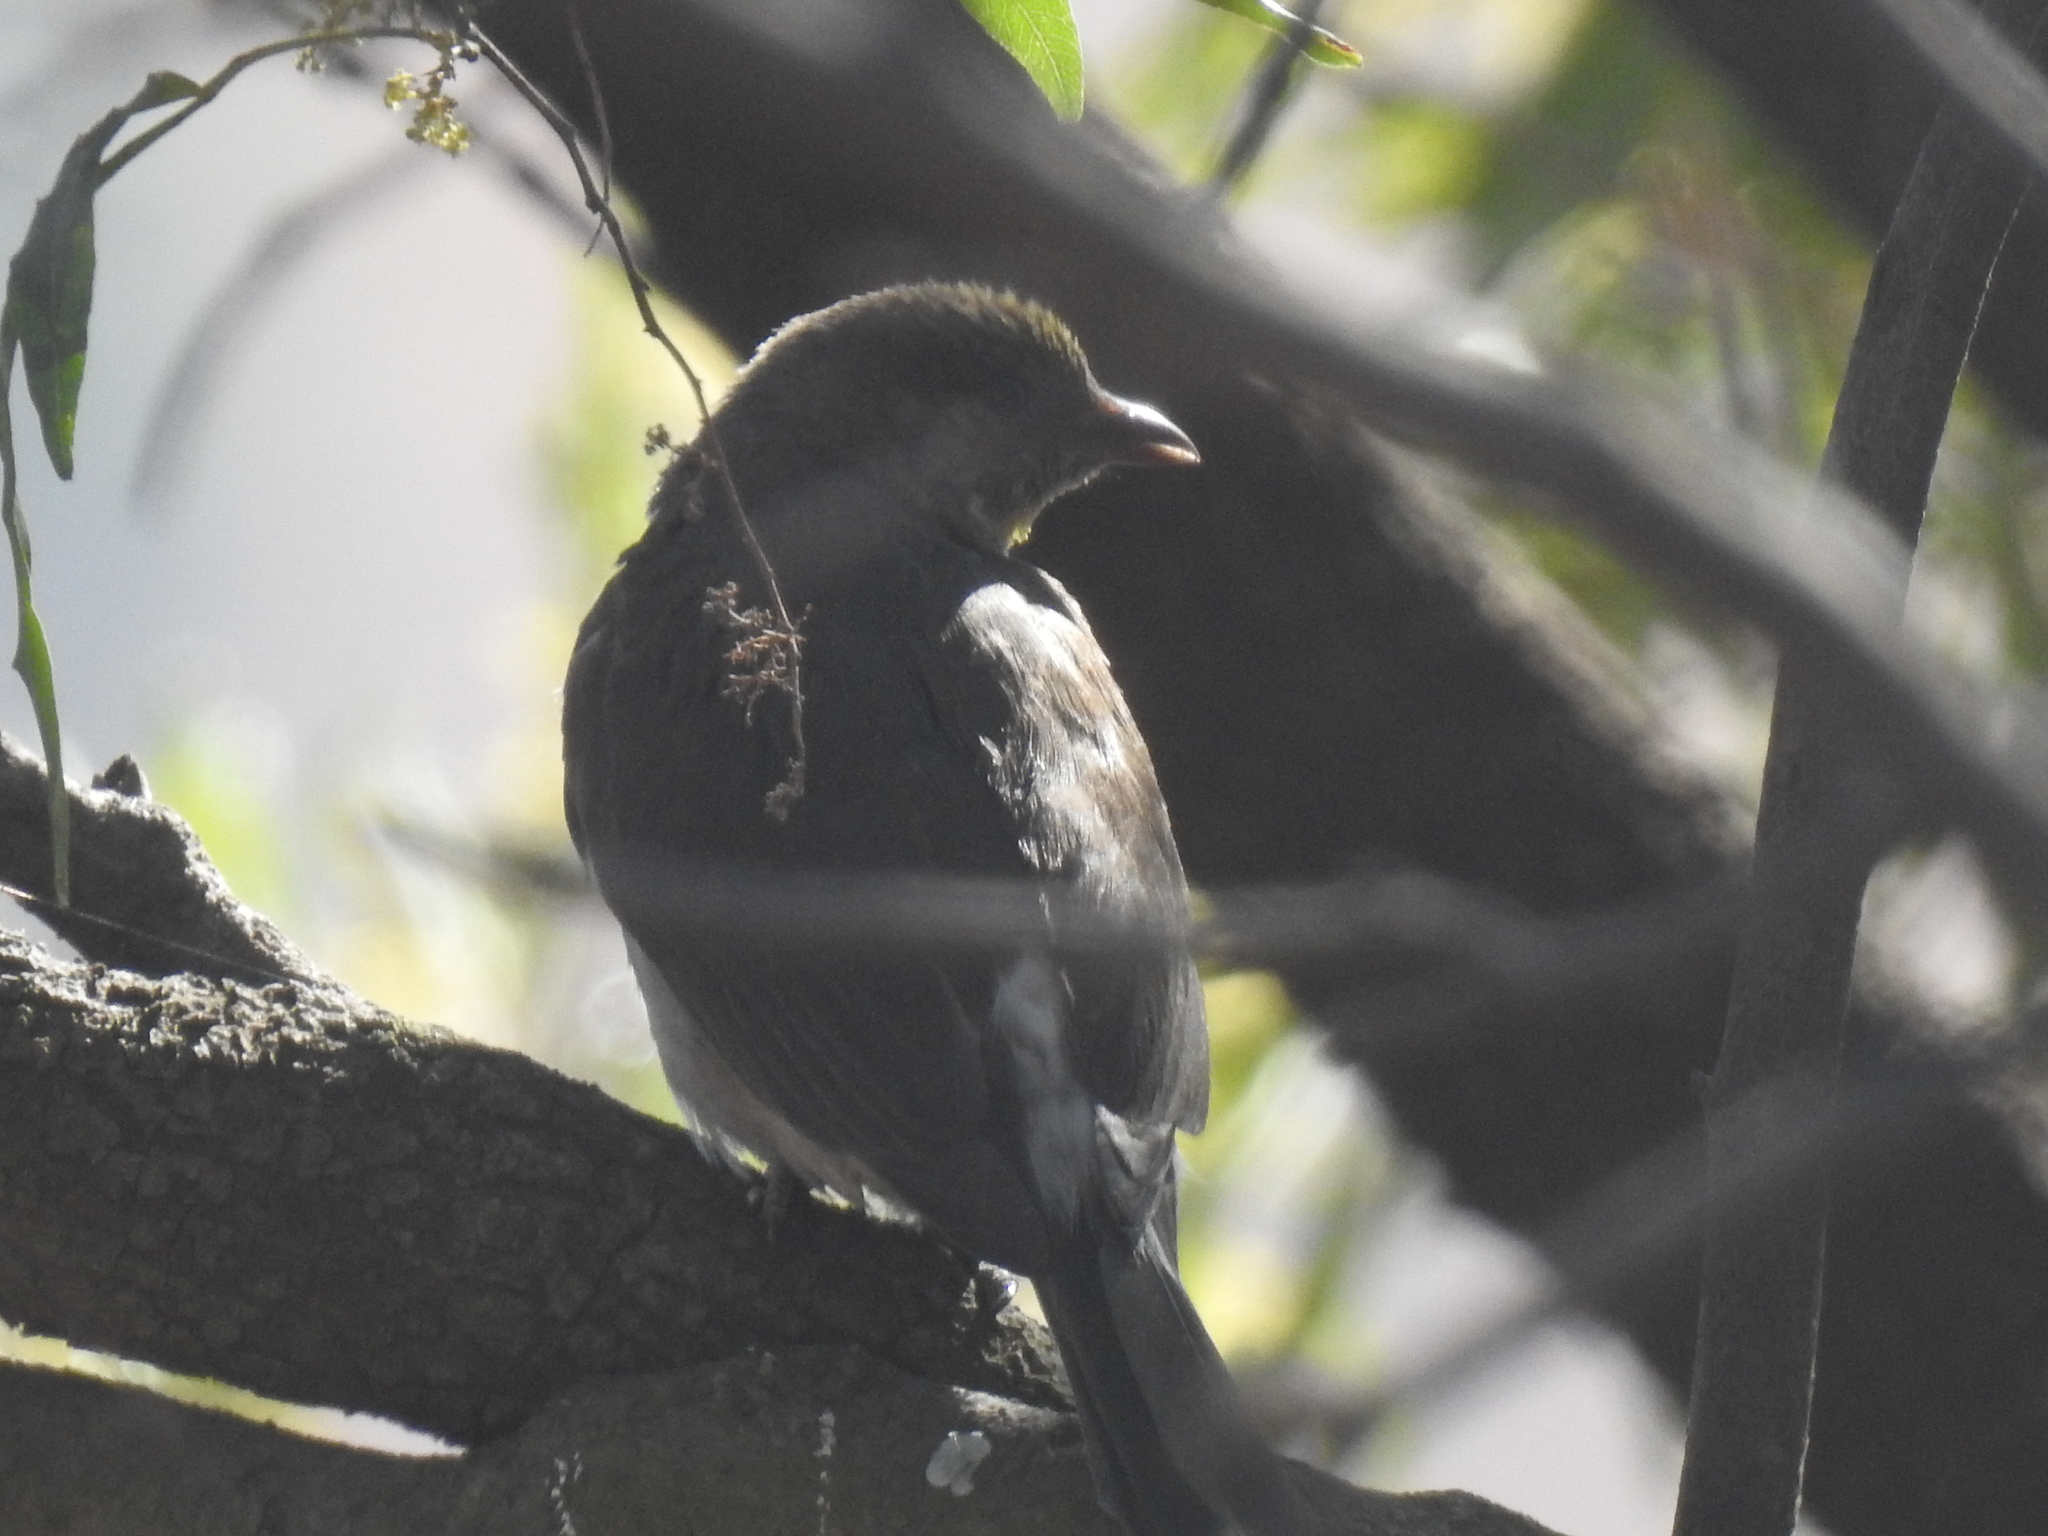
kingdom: Animalia
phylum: Chordata
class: Aves
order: Piciformes
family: Indicatoridae
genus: Indicator
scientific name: Indicator indicator
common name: Greater honeyguide
